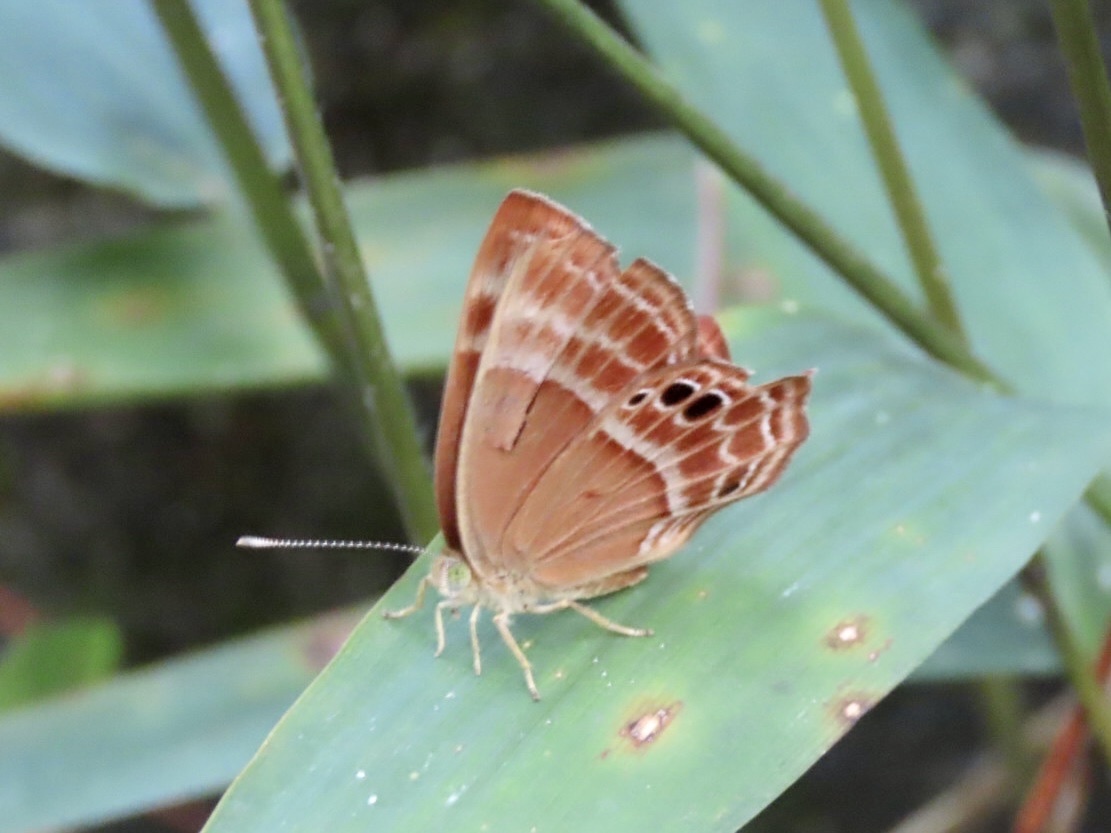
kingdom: Animalia
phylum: Arthropoda
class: Insecta
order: Lepidoptera
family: Lycaenidae
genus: Abisara
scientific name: Abisara echeria
